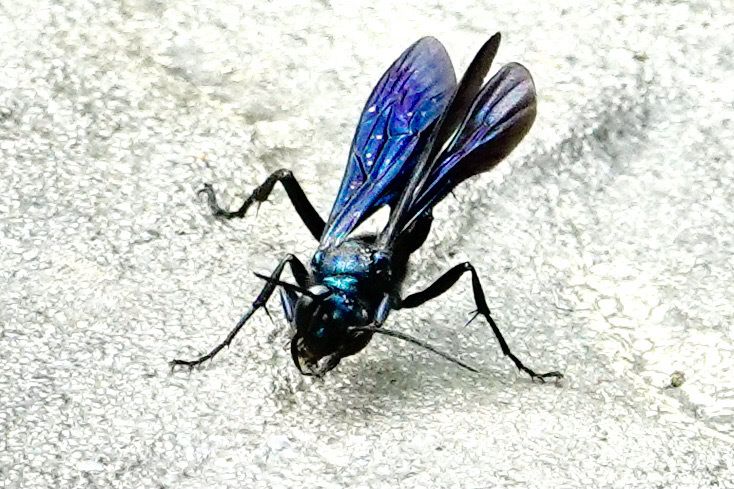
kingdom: Animalia
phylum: Arthropoda
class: Insecta
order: Hymenoptera
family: Sphecidae
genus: Chalybion
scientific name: Chalybion californicum
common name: Mud dauber
